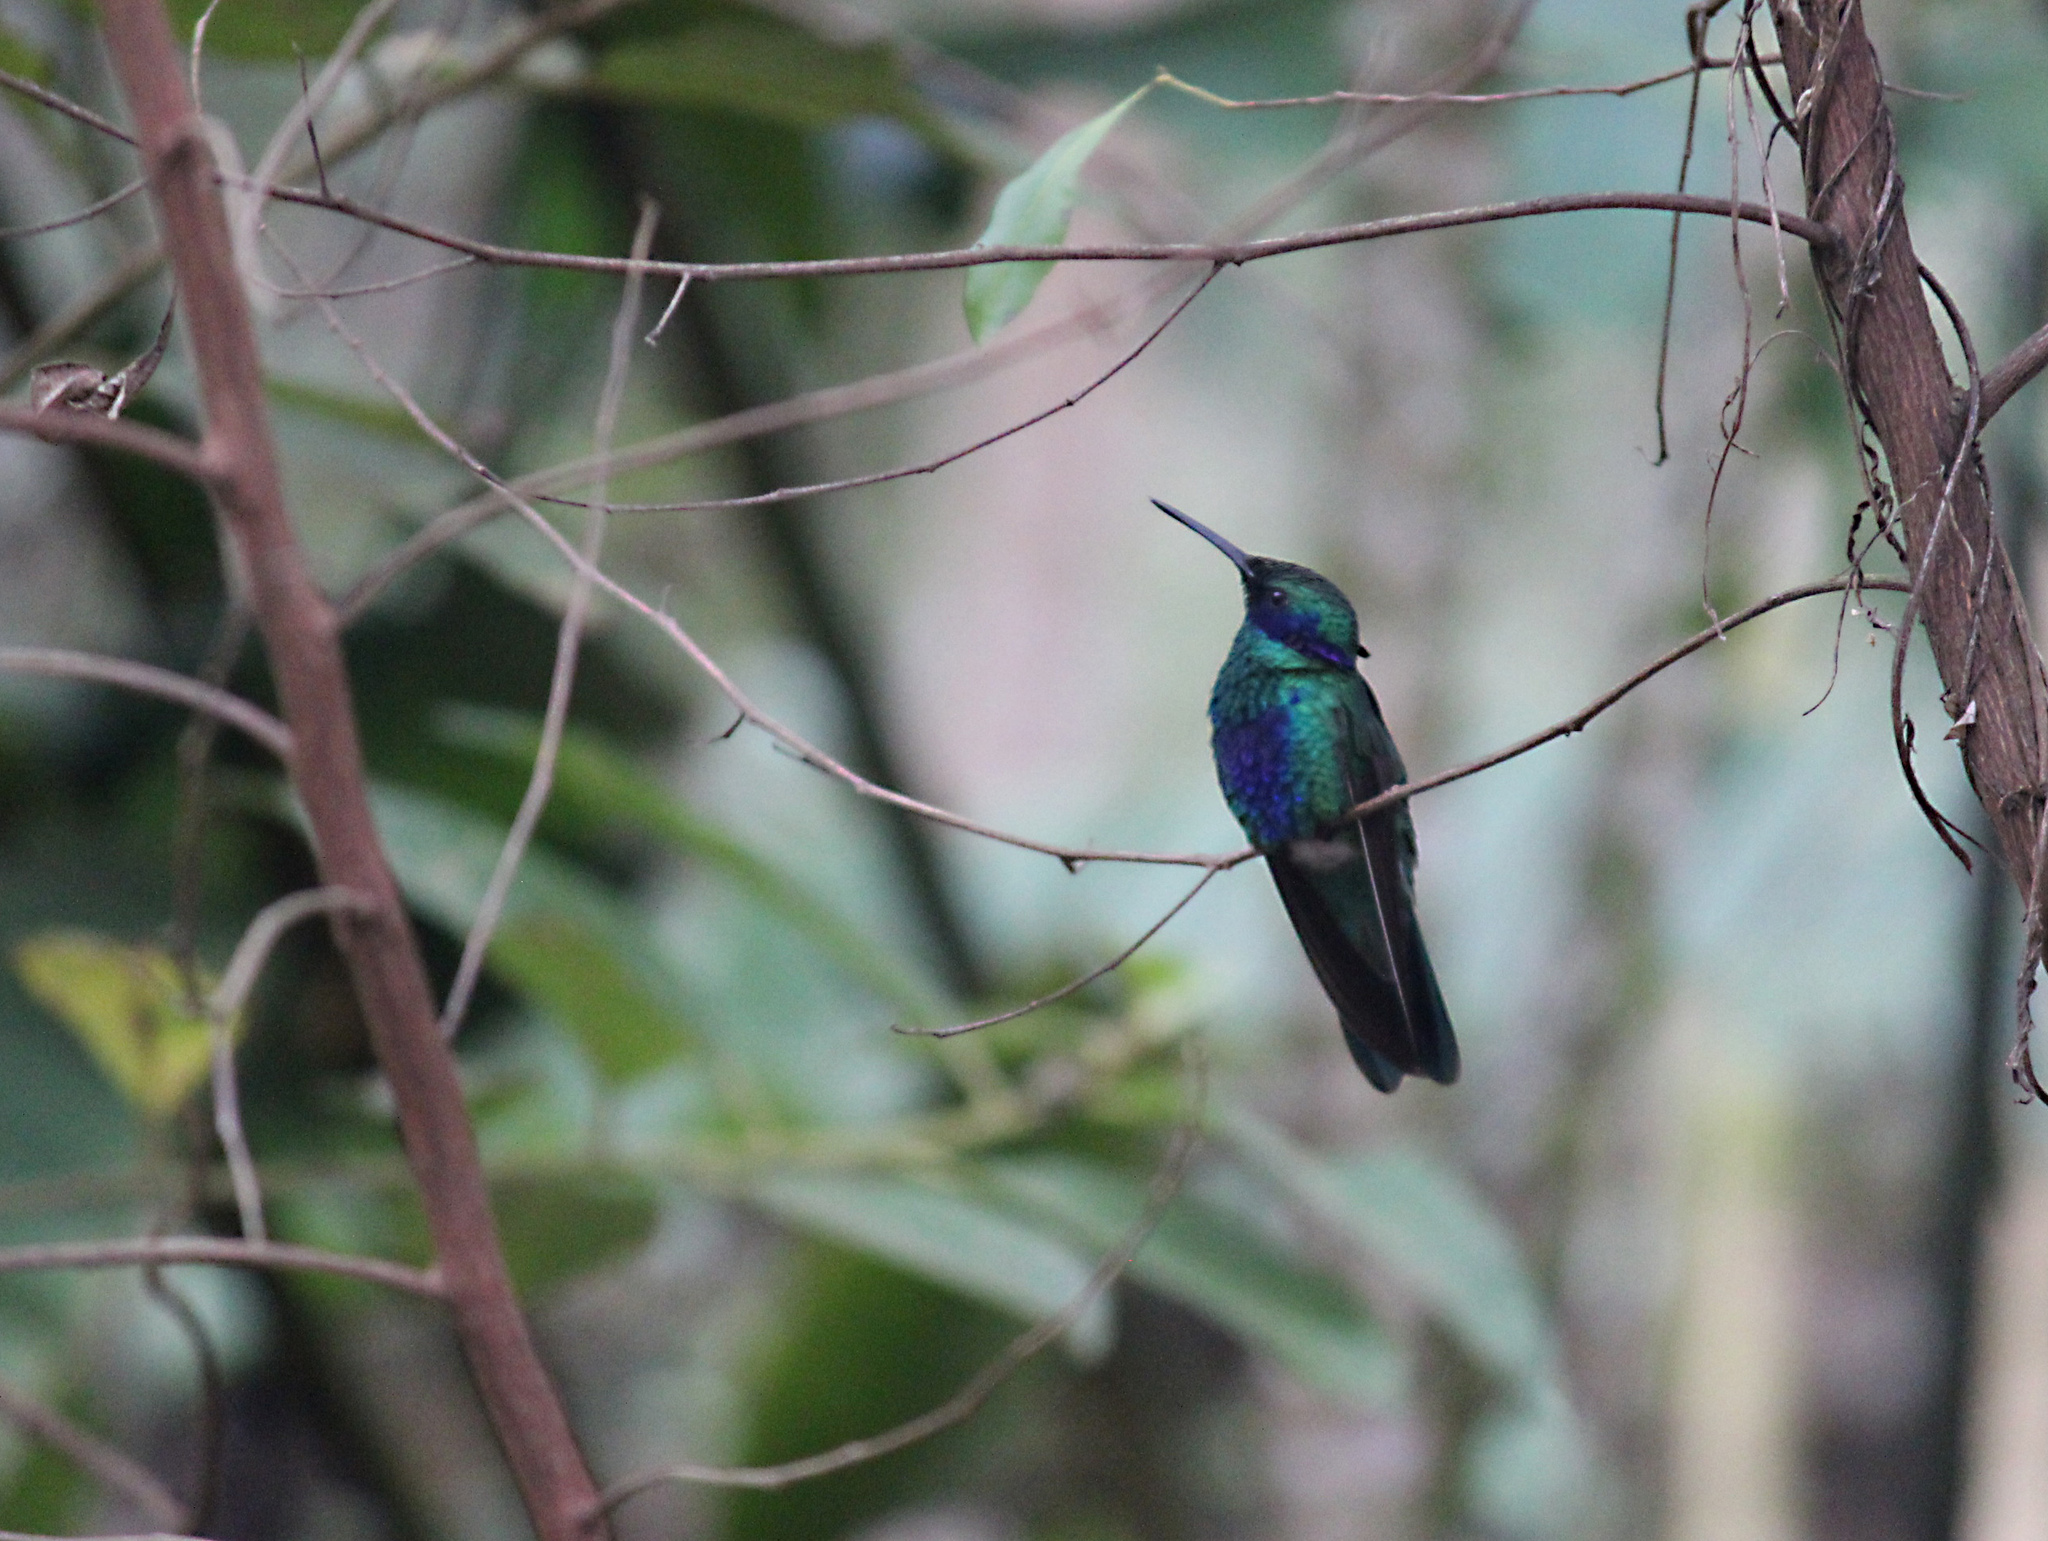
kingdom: Animalia
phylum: Chordata
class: Aves
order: Apodiformes
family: Trochilidae
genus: Colibri
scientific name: Colibri coruscans
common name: Sparkling violetear
